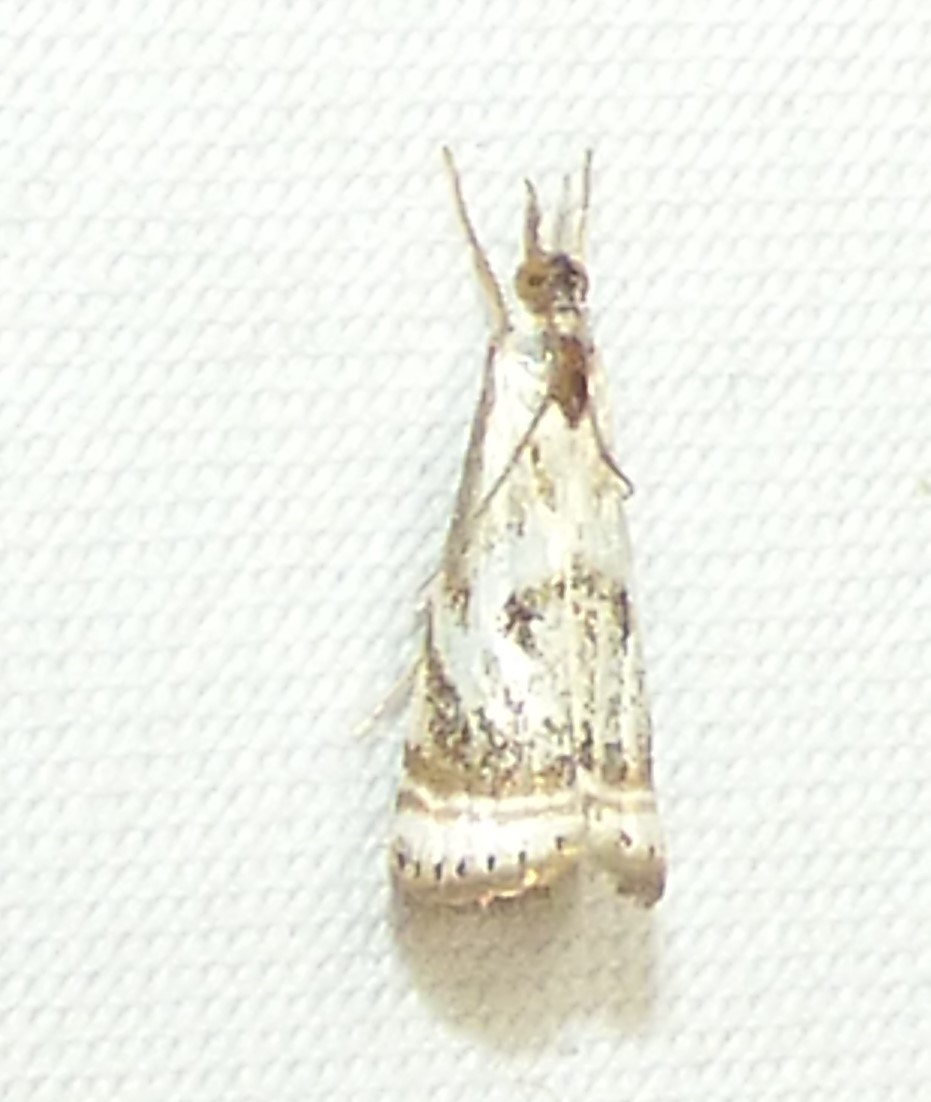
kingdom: Animalia
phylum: Arthropoda
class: Insecta
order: Lepidoptera
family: Crambidae
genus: Microcrambus
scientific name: Microcrambus elegans
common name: Elegant grass-veneer
